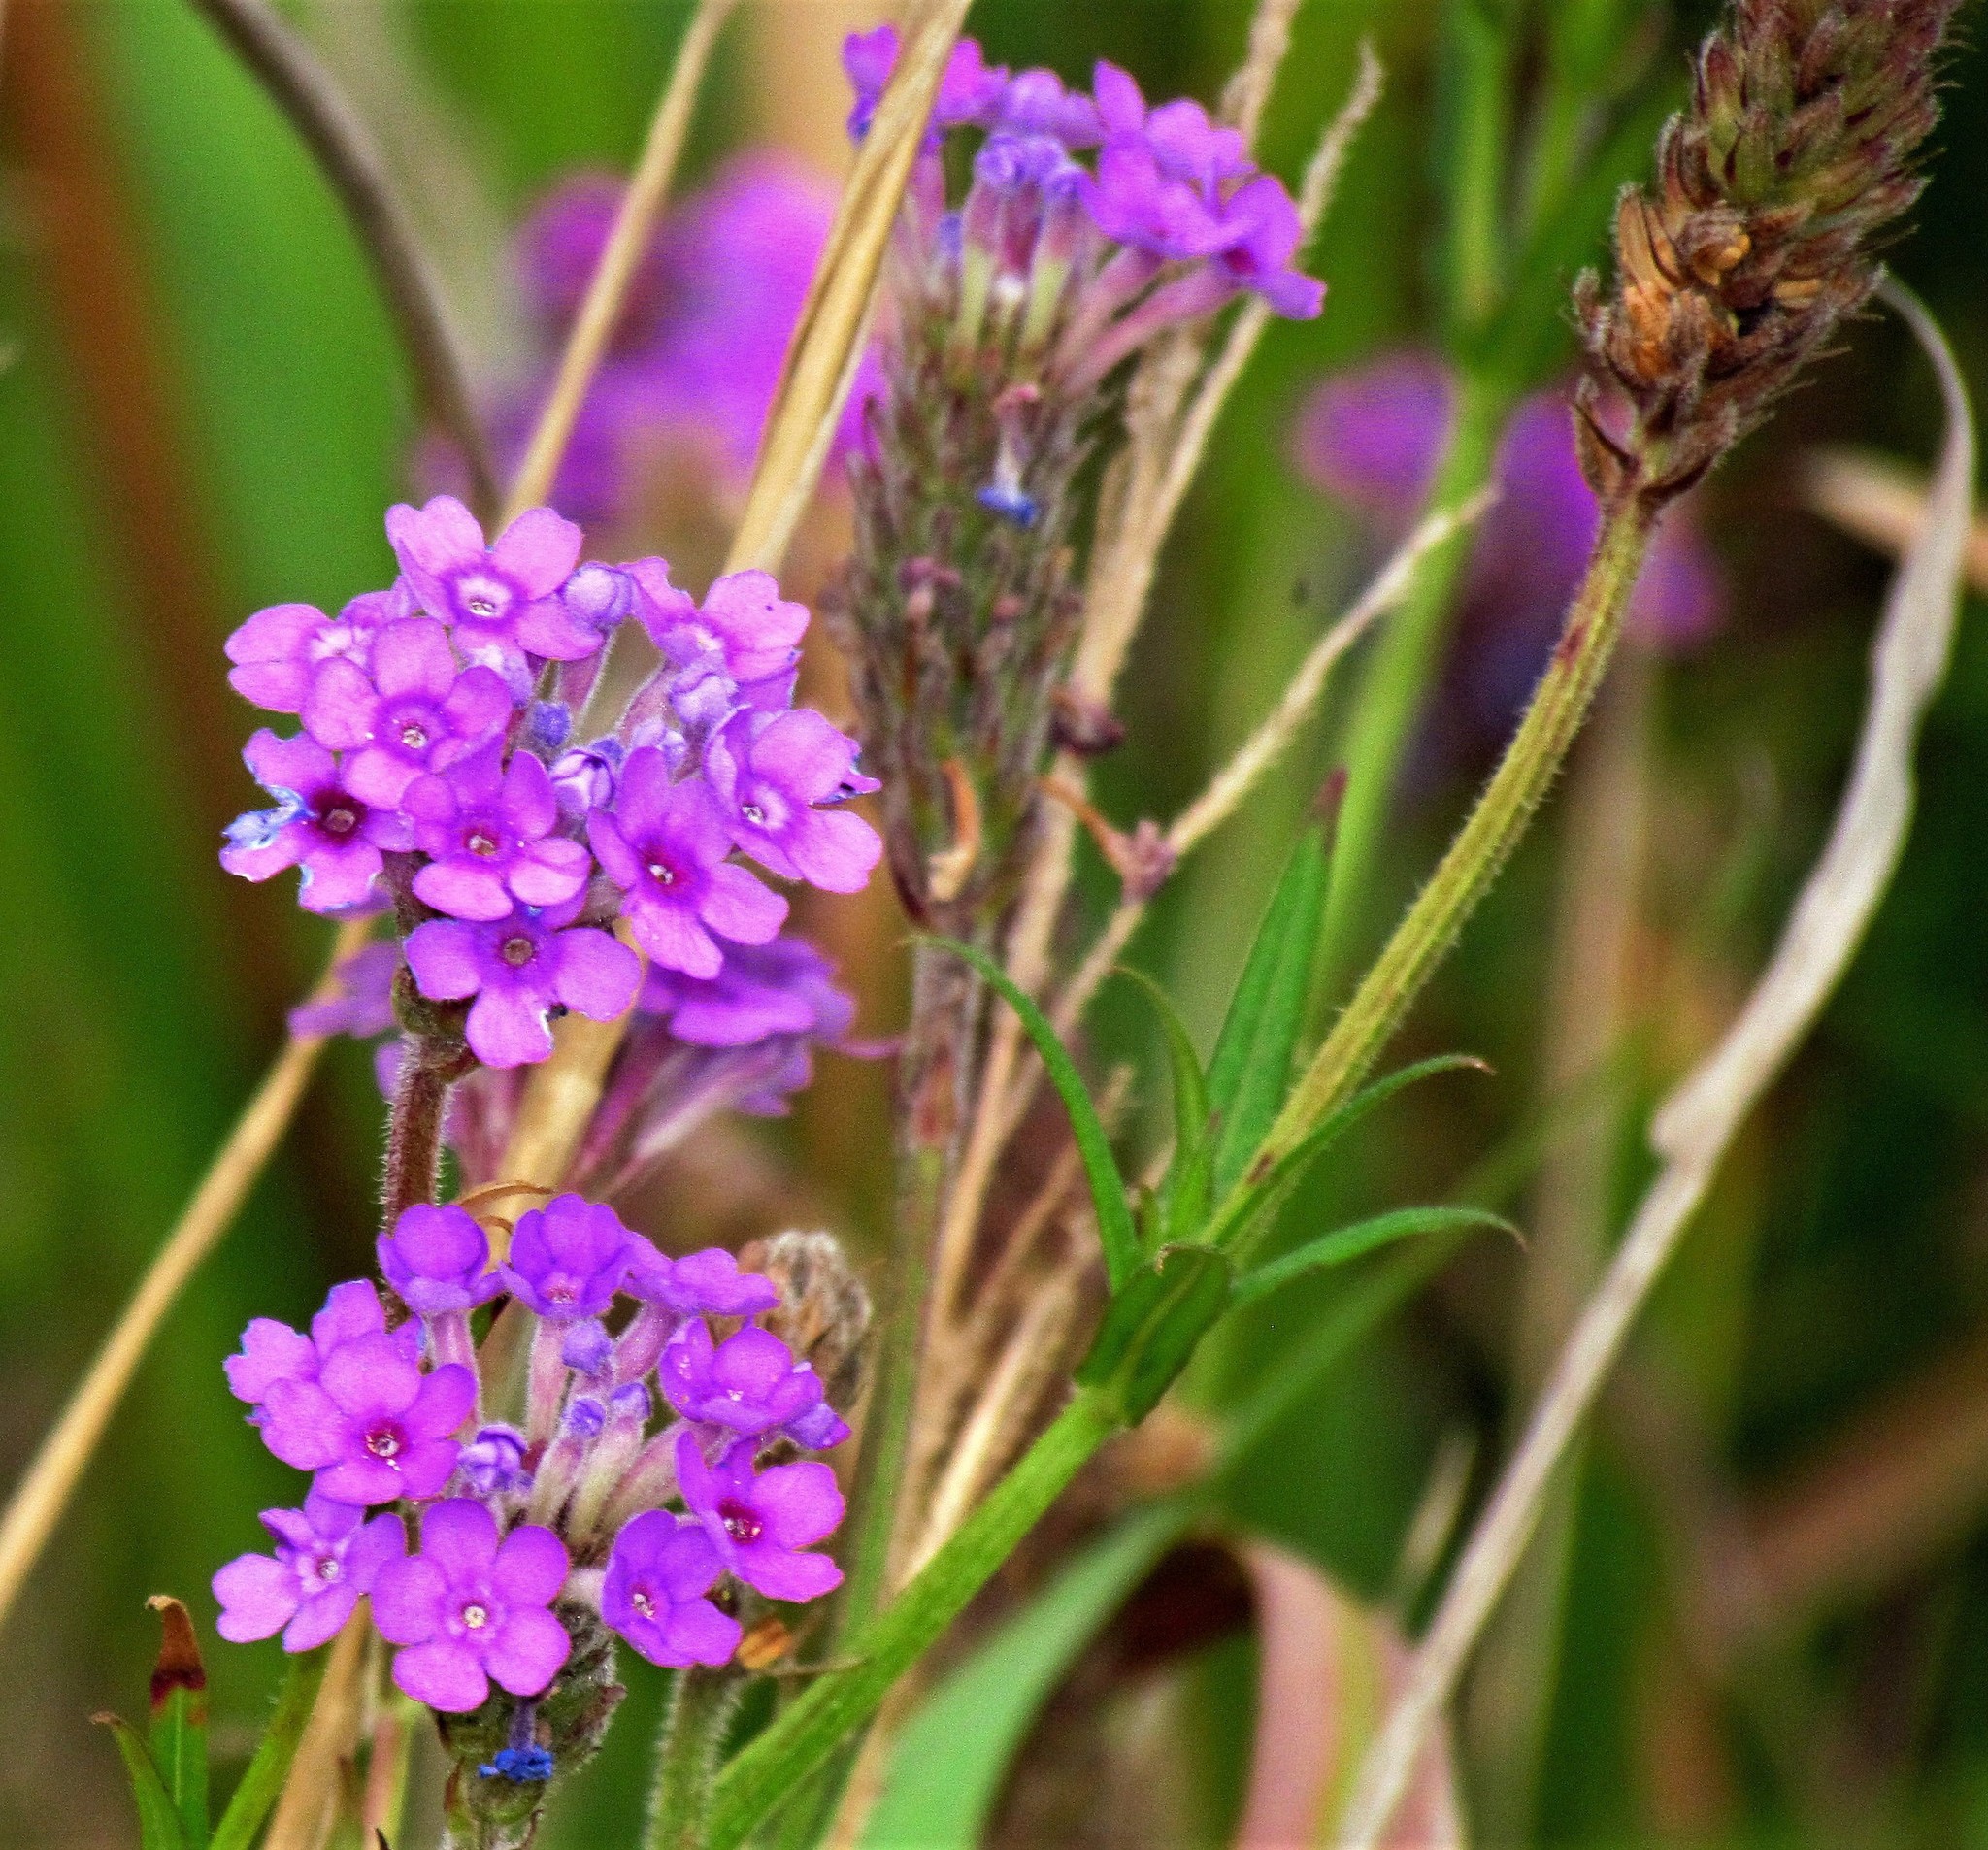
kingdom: Plantae
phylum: Tracheophyta
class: Magnoliopsida
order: Lamiales
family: Verbenaceae
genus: Verbena
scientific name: Verbena sessilis
